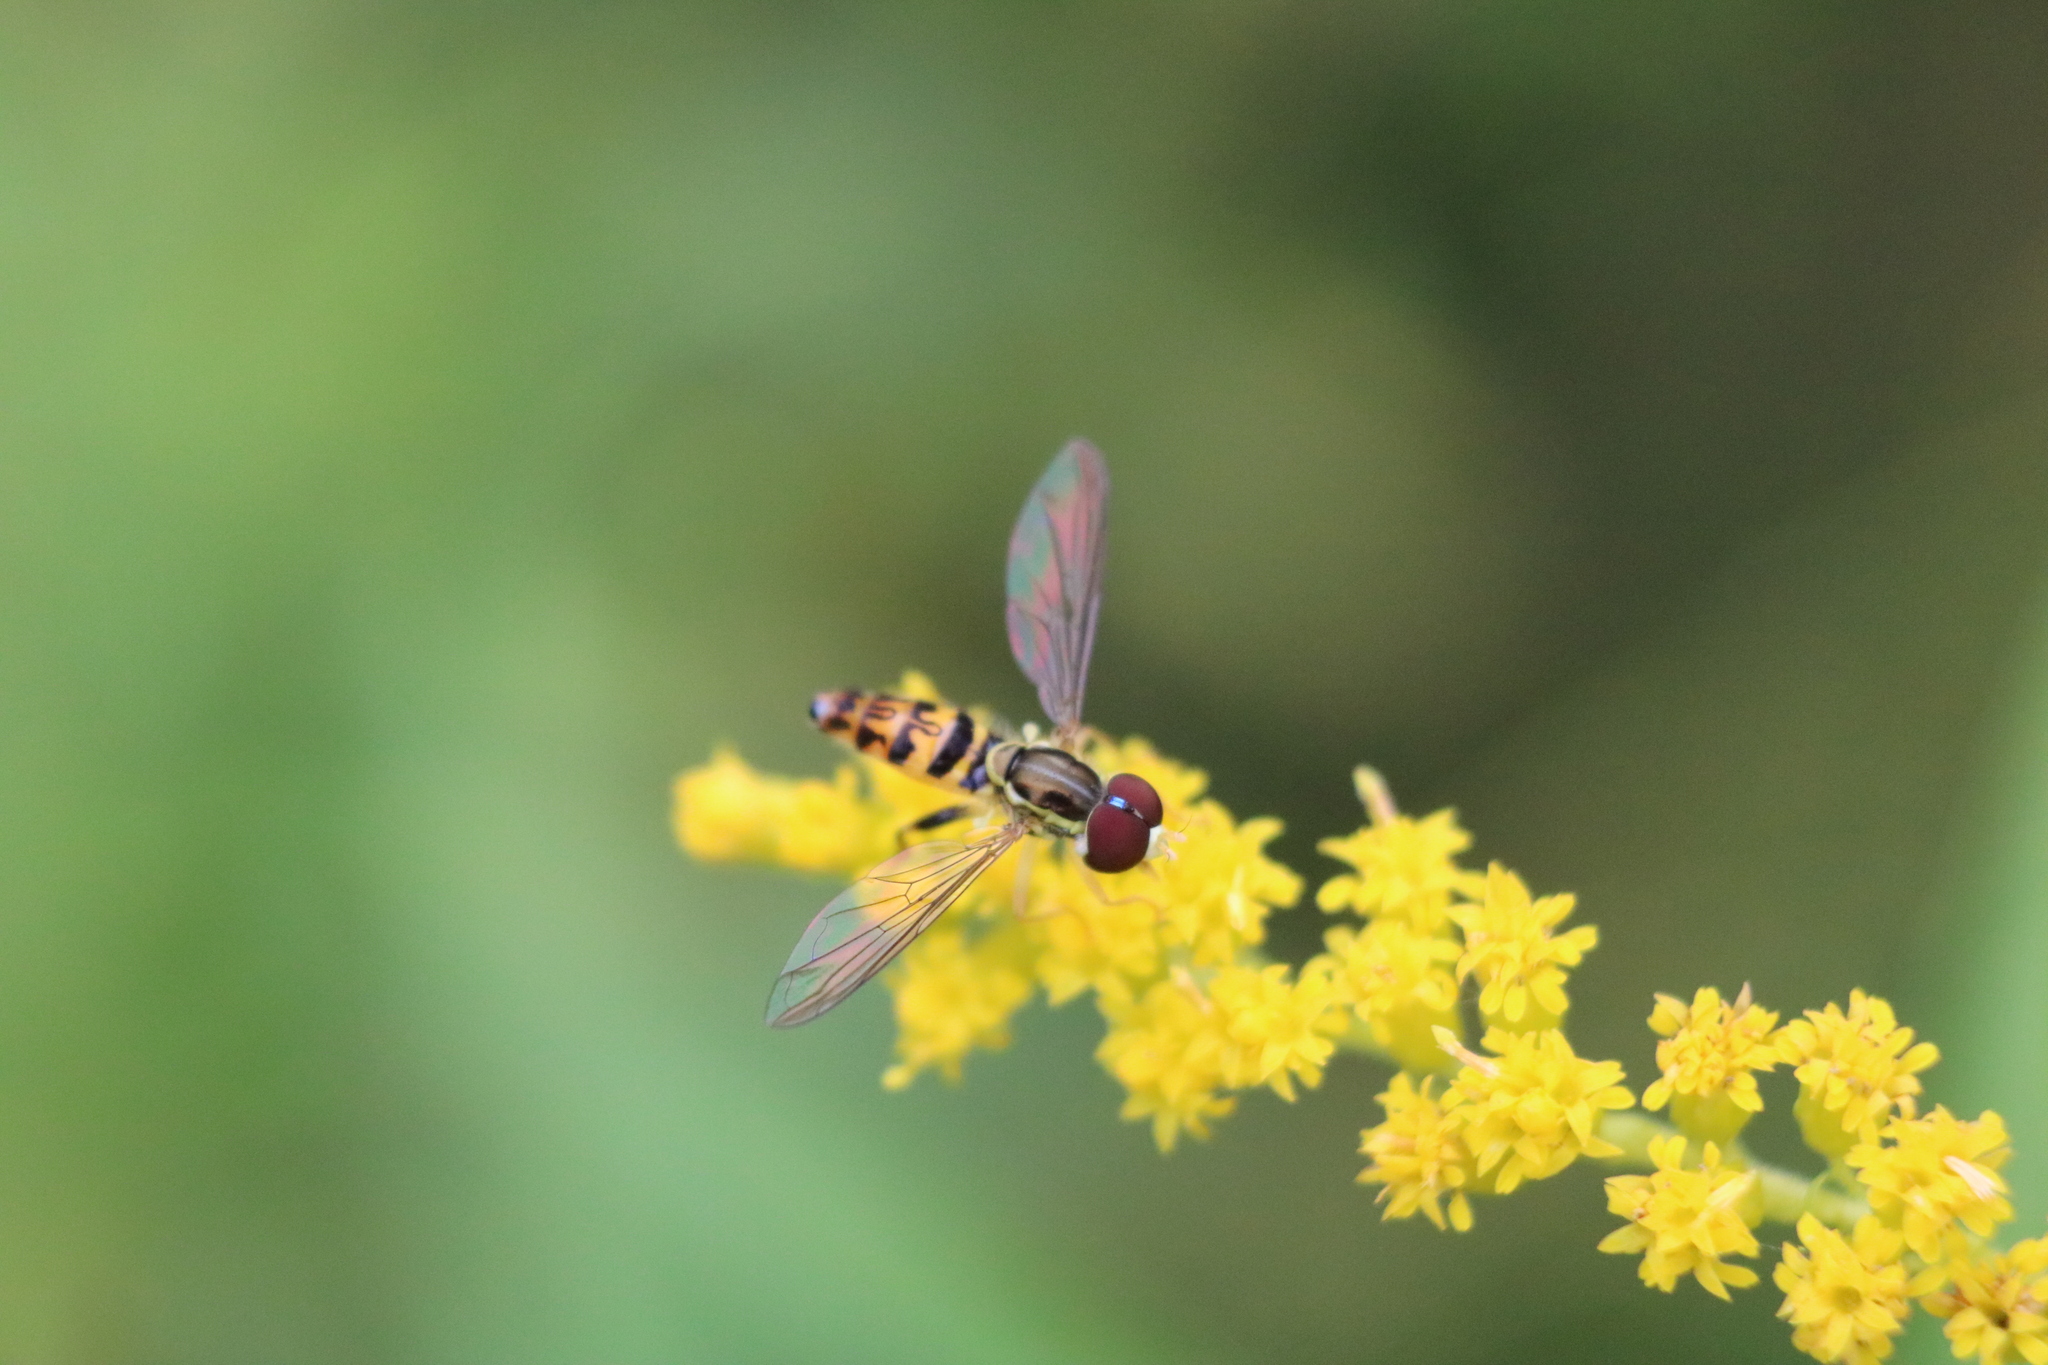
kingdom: Animalia
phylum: Arthropoda
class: Insecta
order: Diptera
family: Syrphidae
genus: Toxomerus
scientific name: Toxomerus geminatus
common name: Eastern calligrapher
